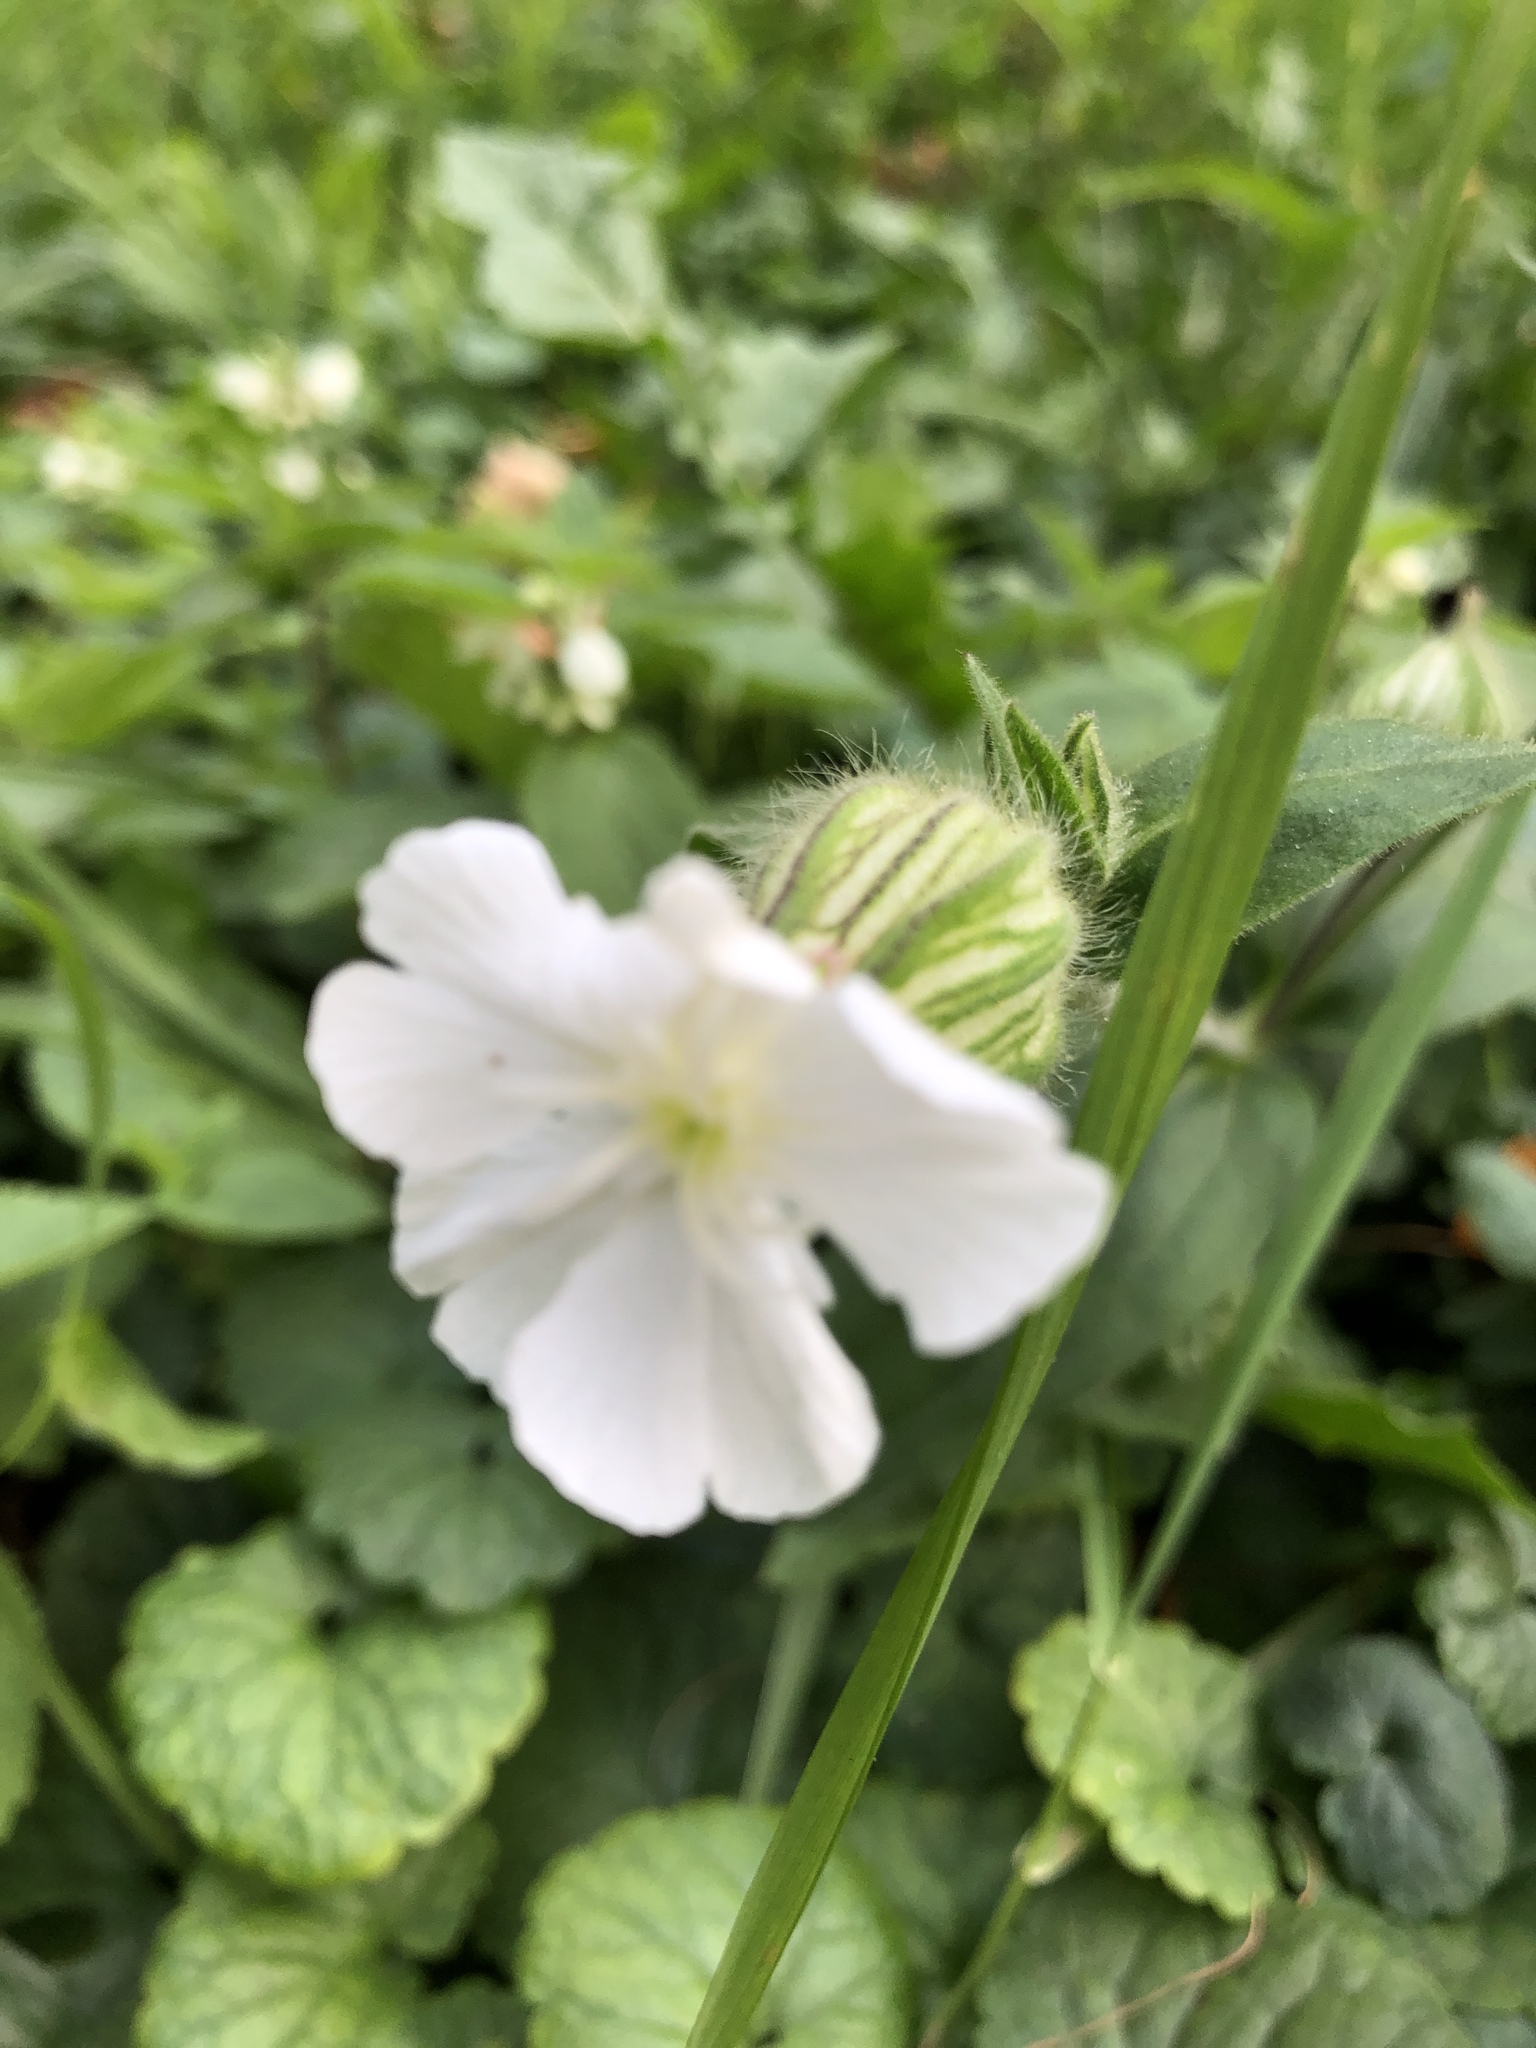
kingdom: Plantae
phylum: Tracheophyta
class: Magnoliopsida
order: Caryophyllales
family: Caryophyllaceae
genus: Silene
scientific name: Silene latifolia
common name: White campion
